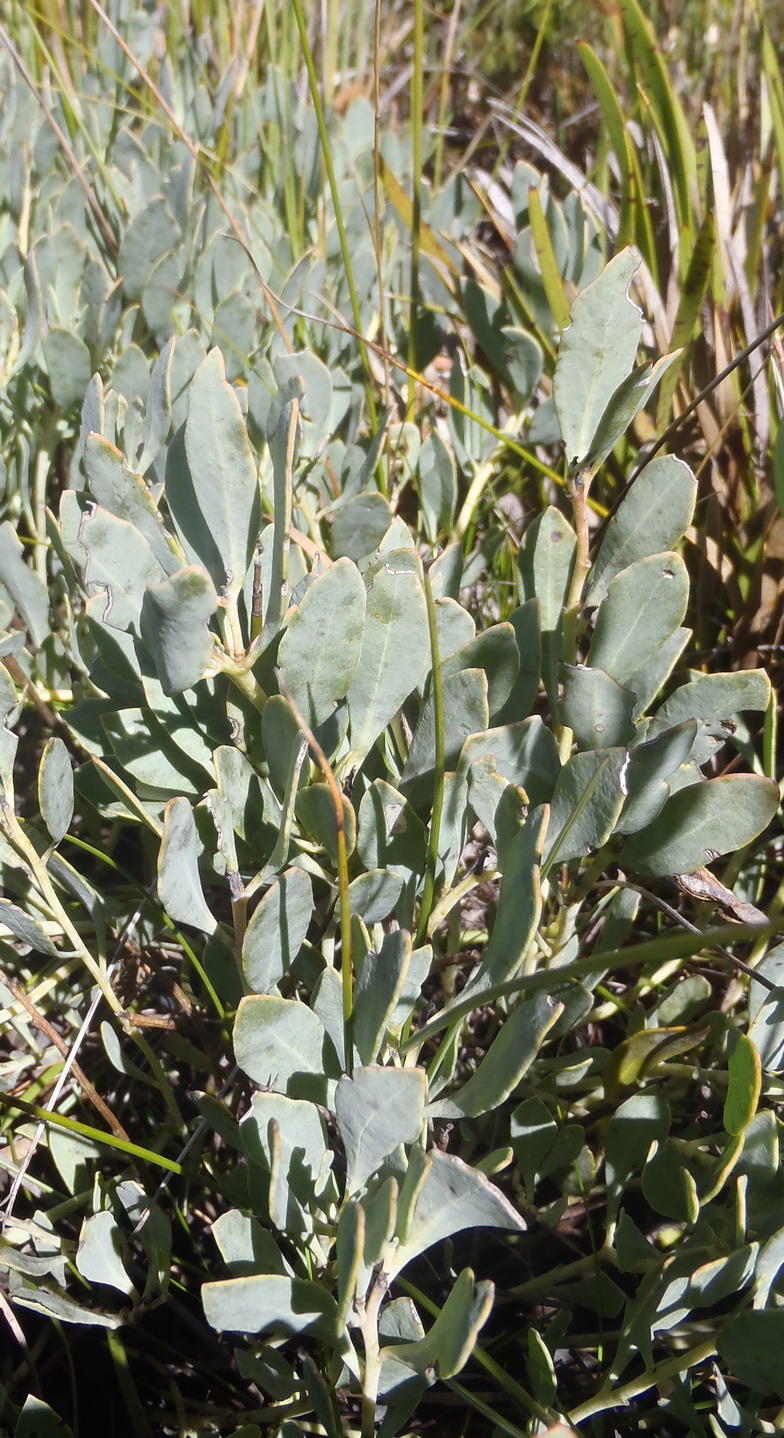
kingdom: Plantae
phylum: Tracheophyta
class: Magnoliopsida
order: Fabales
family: Fabaceae
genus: Rafnia
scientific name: Rafnia rostrata
